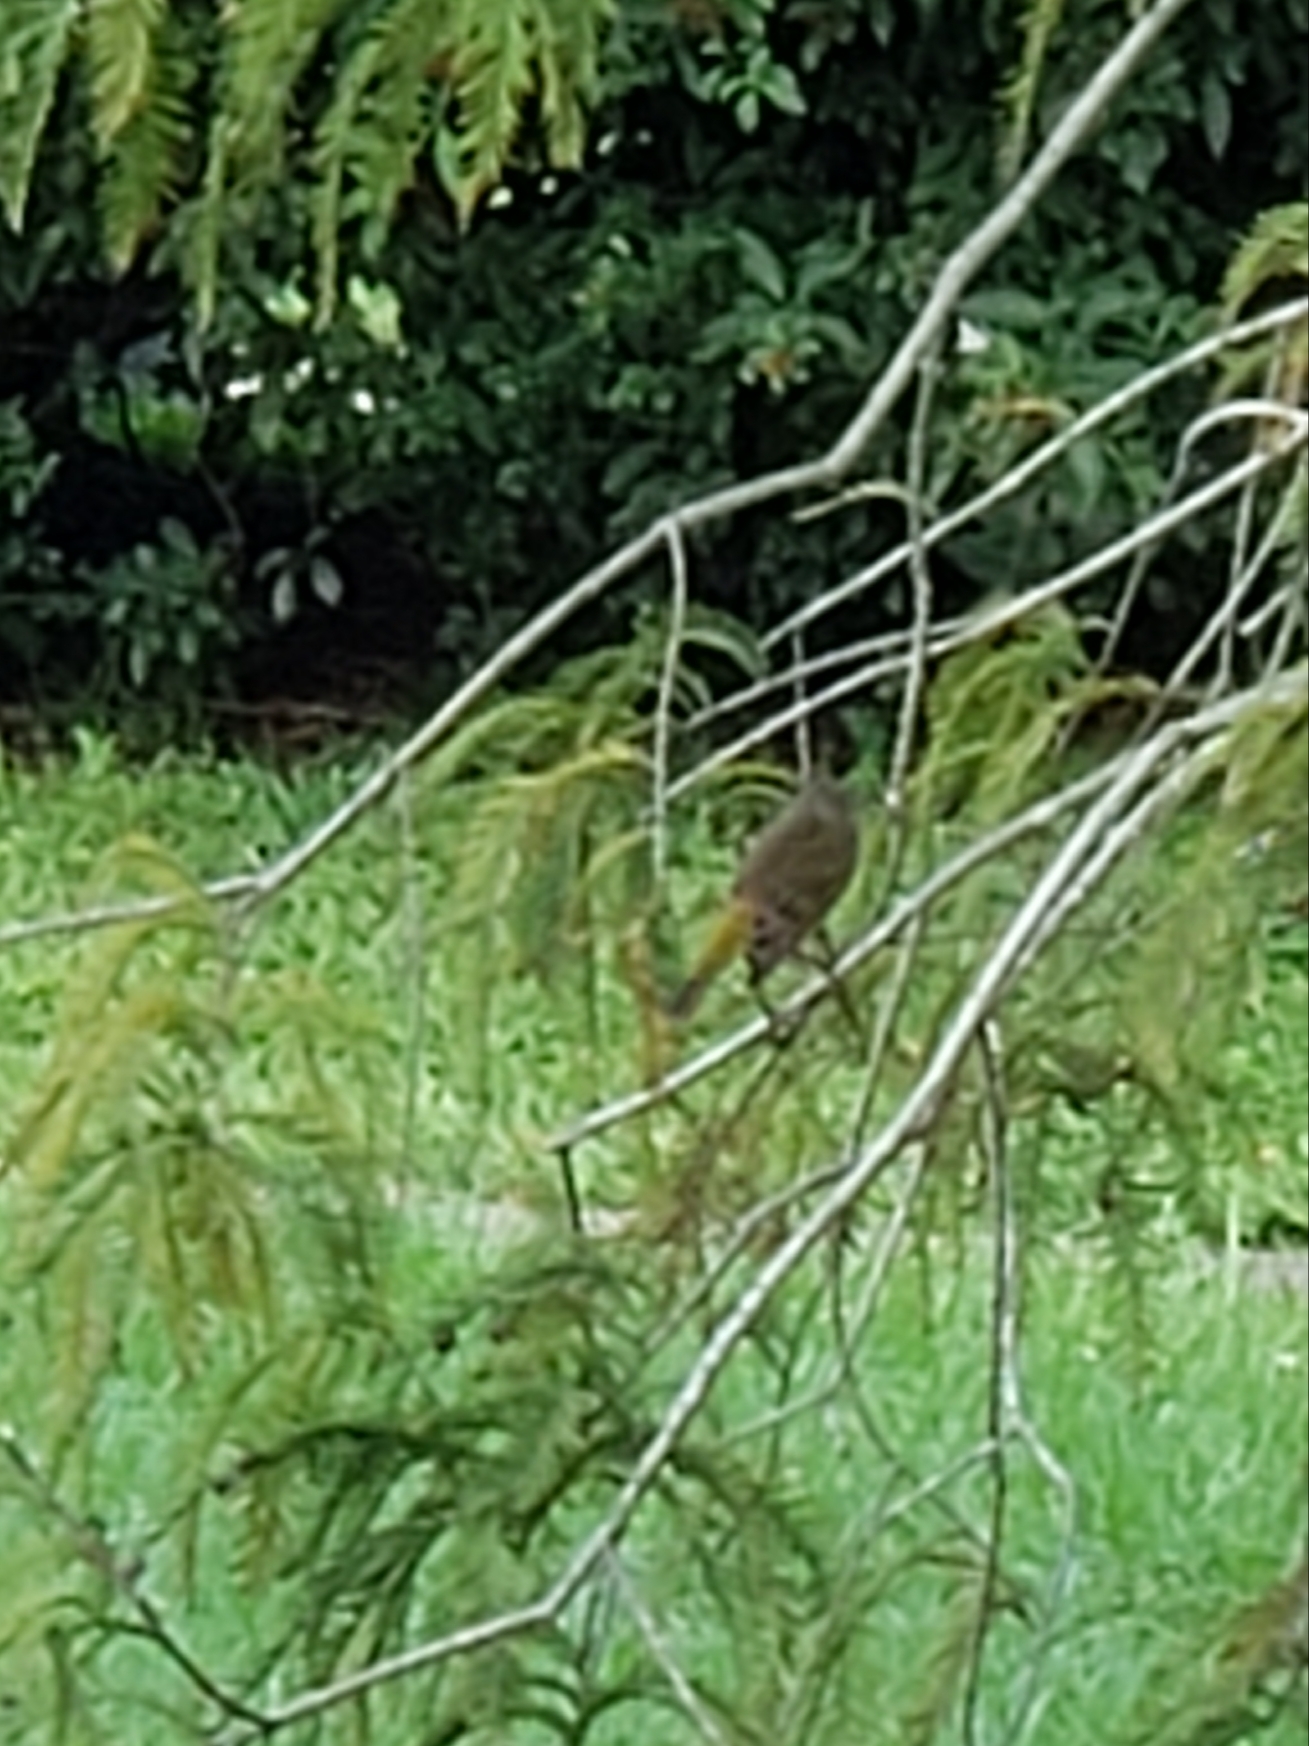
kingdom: Animalia
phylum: Chordata
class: Aves
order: Passeriformes
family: Parulidae
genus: Setophaga
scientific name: Setophaga palmarum
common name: Palm warbler
